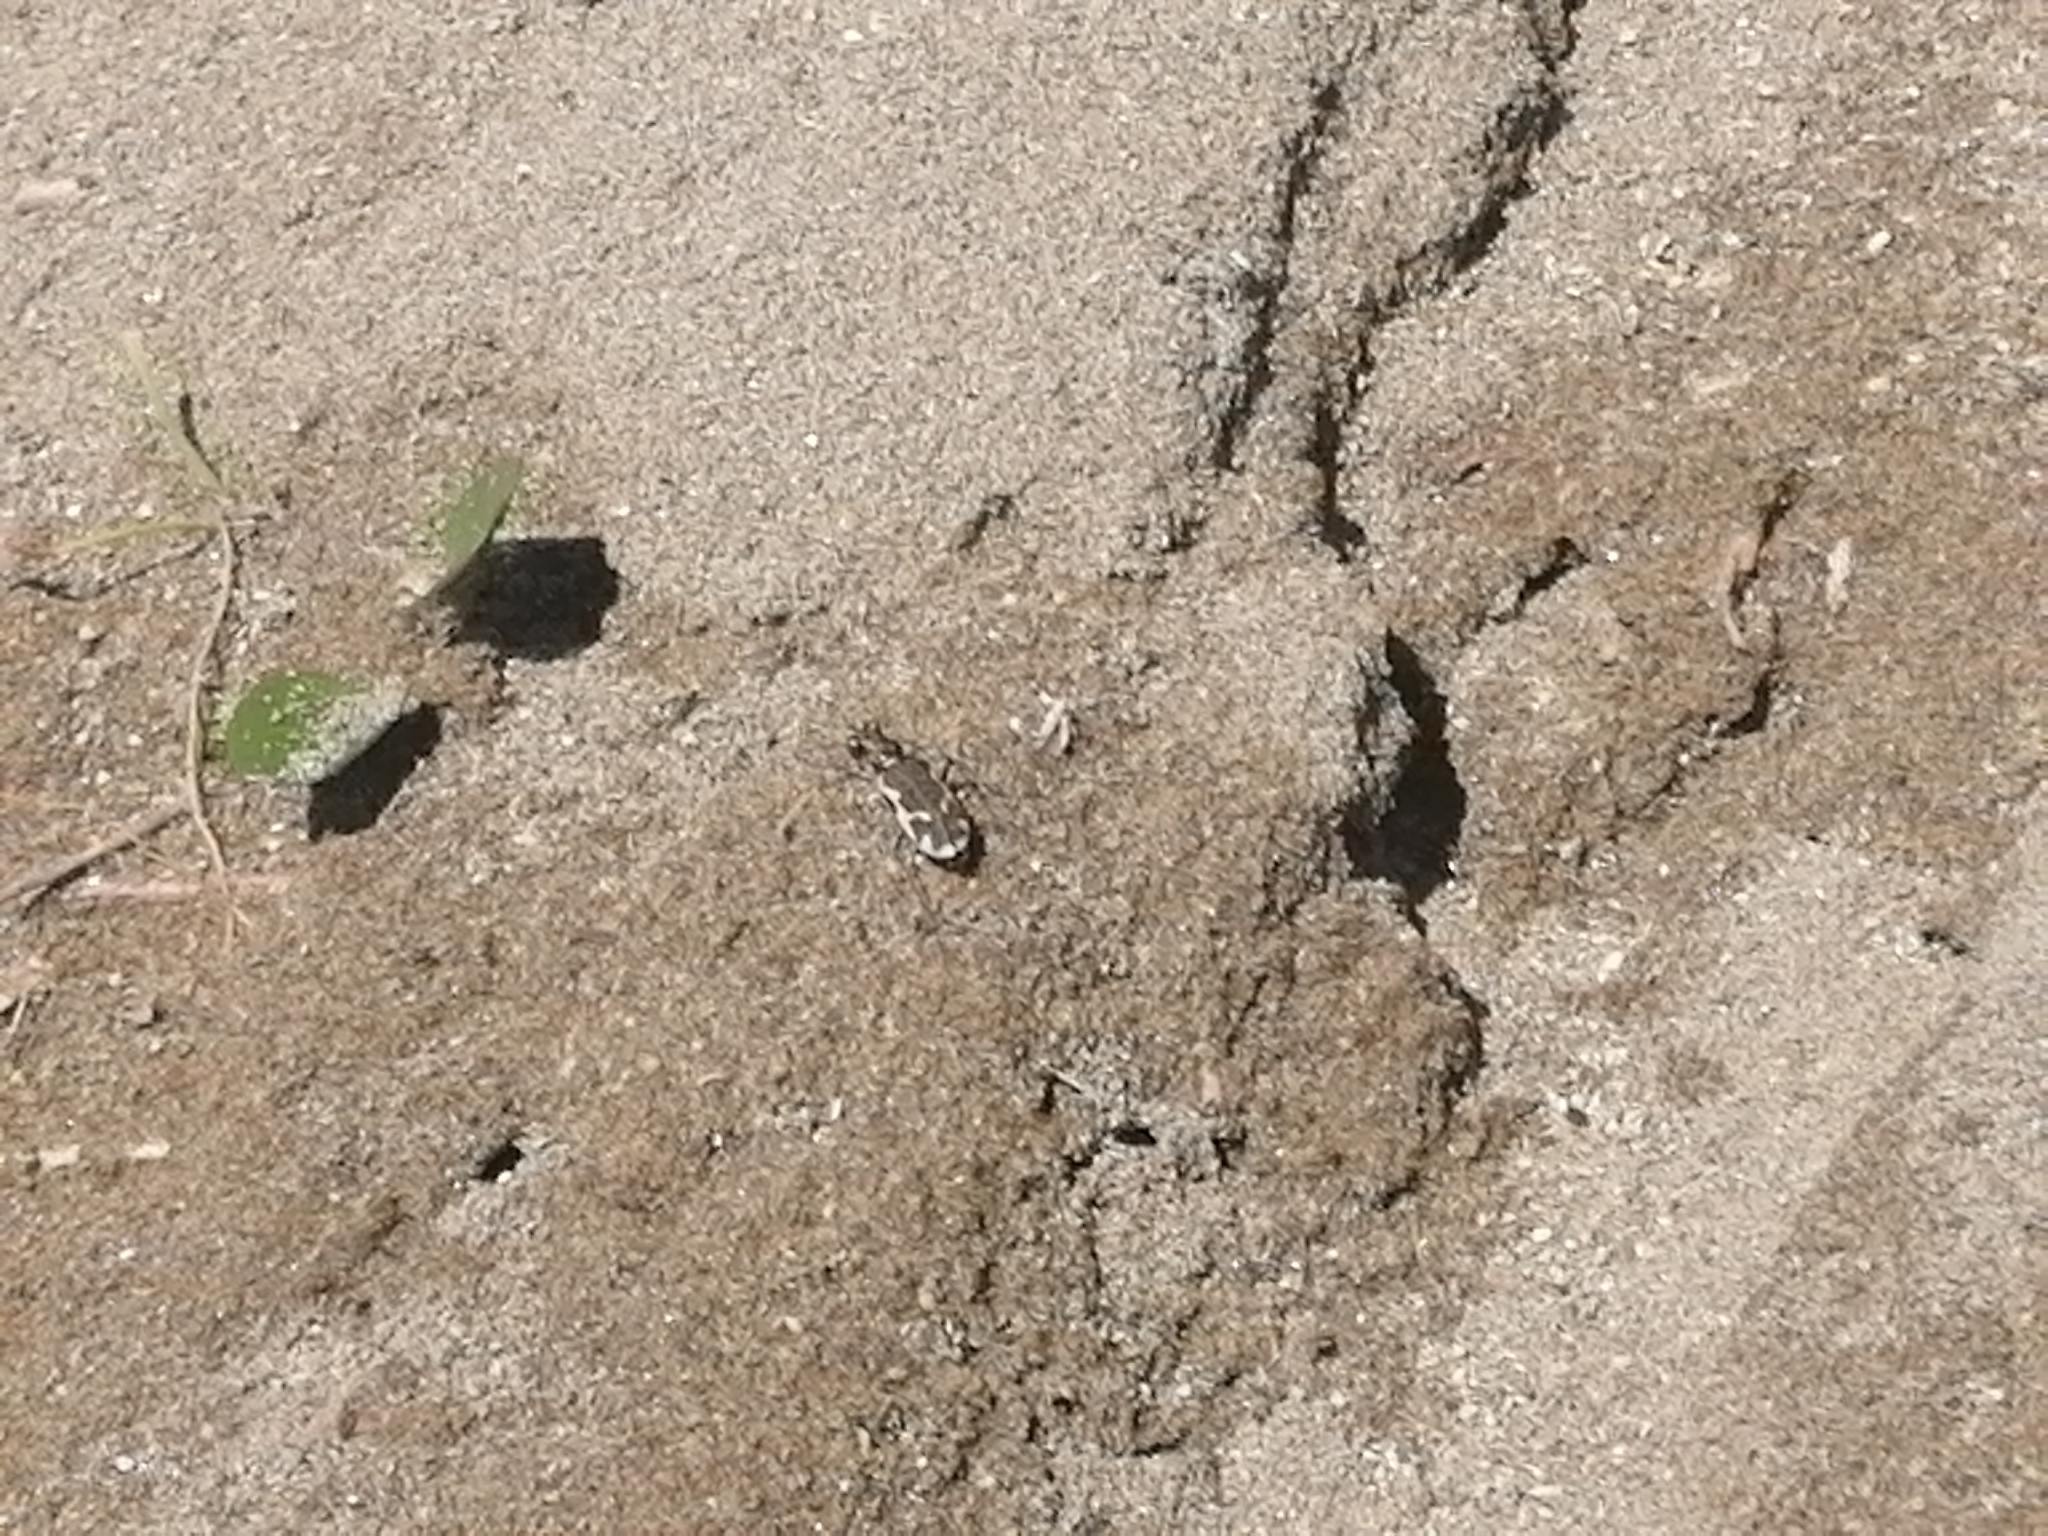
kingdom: Animalia
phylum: Arthropoda
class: Insecta
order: Coleoptera
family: Carabidae
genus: Neocicindela
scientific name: Neocicindela tuberculata
